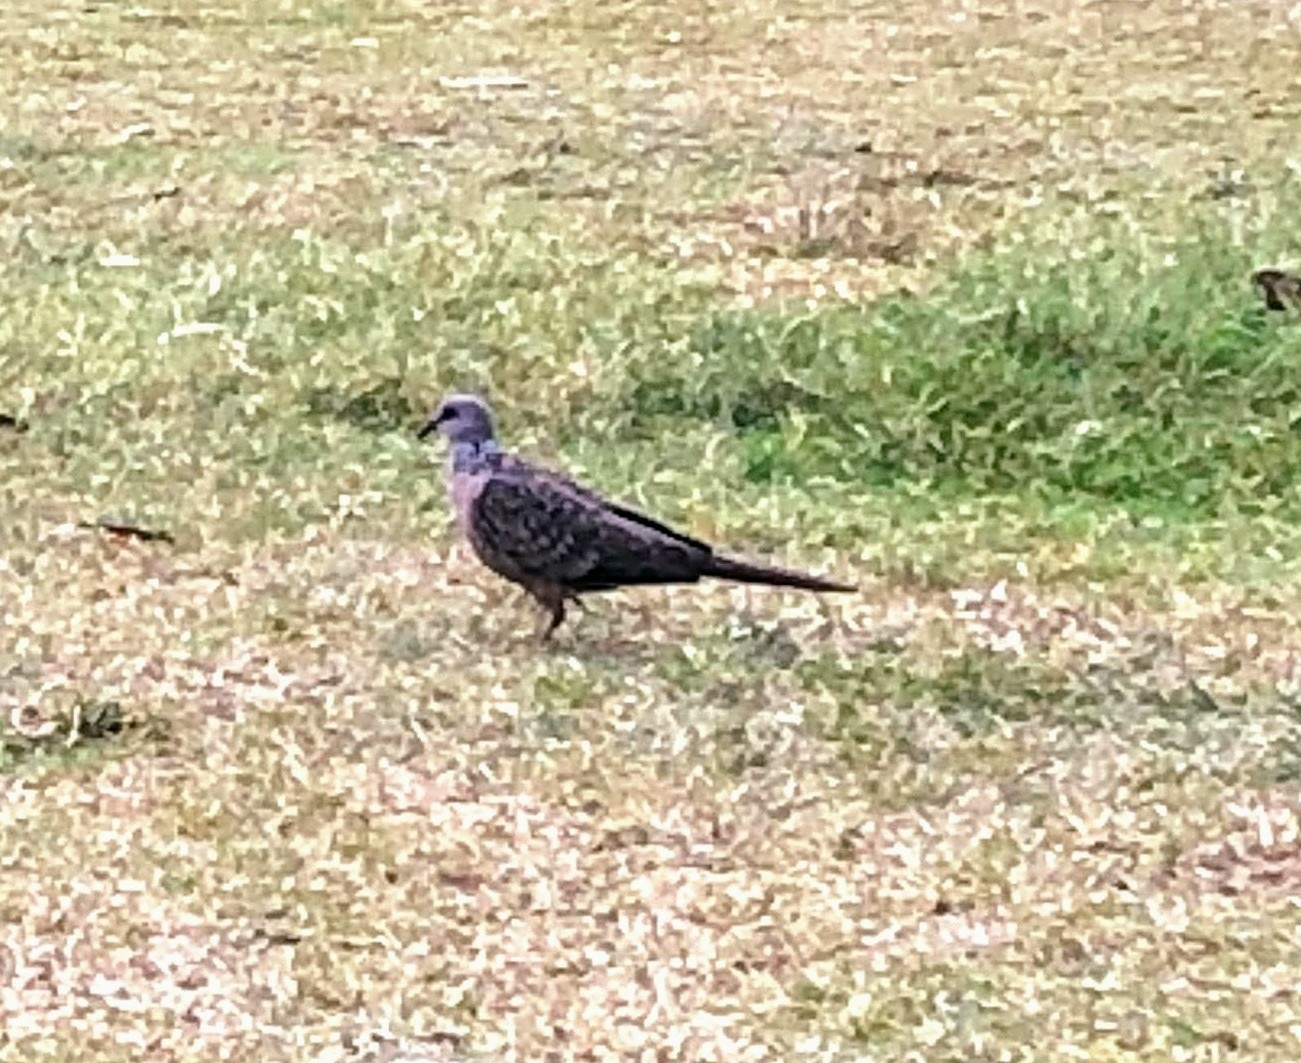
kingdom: Animalia
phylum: Chordata
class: Aves
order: Columbiformes
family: Columbidae
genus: Spilopelia
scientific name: Spilopelia chinensis
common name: Spotted dove
